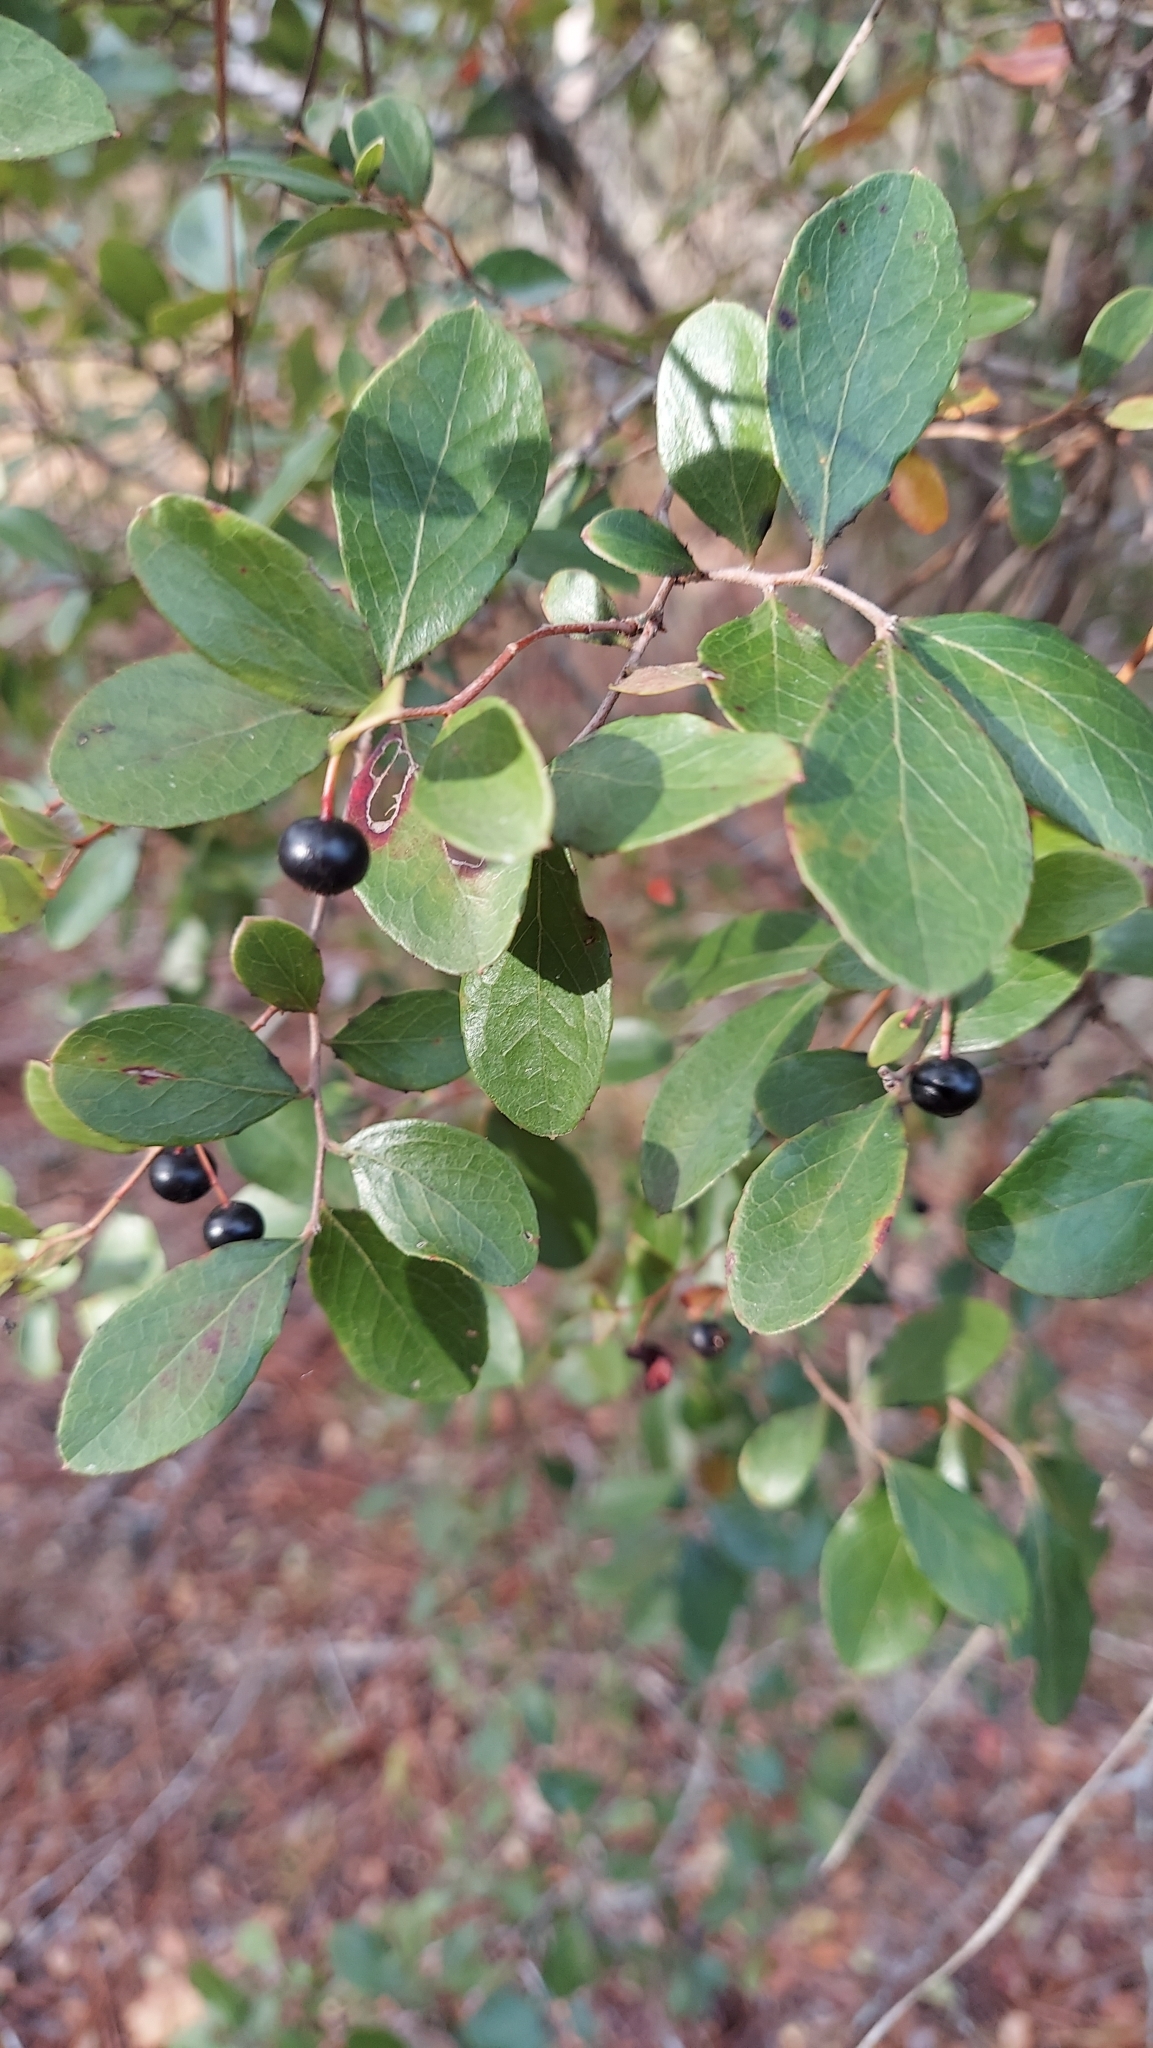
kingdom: Plantae
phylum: Tracheophyta
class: Magnoliopsida
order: Ericales
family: Ericaceae
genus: Vaccinium
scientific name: Vaccinium arboreum
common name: Farkleberry
